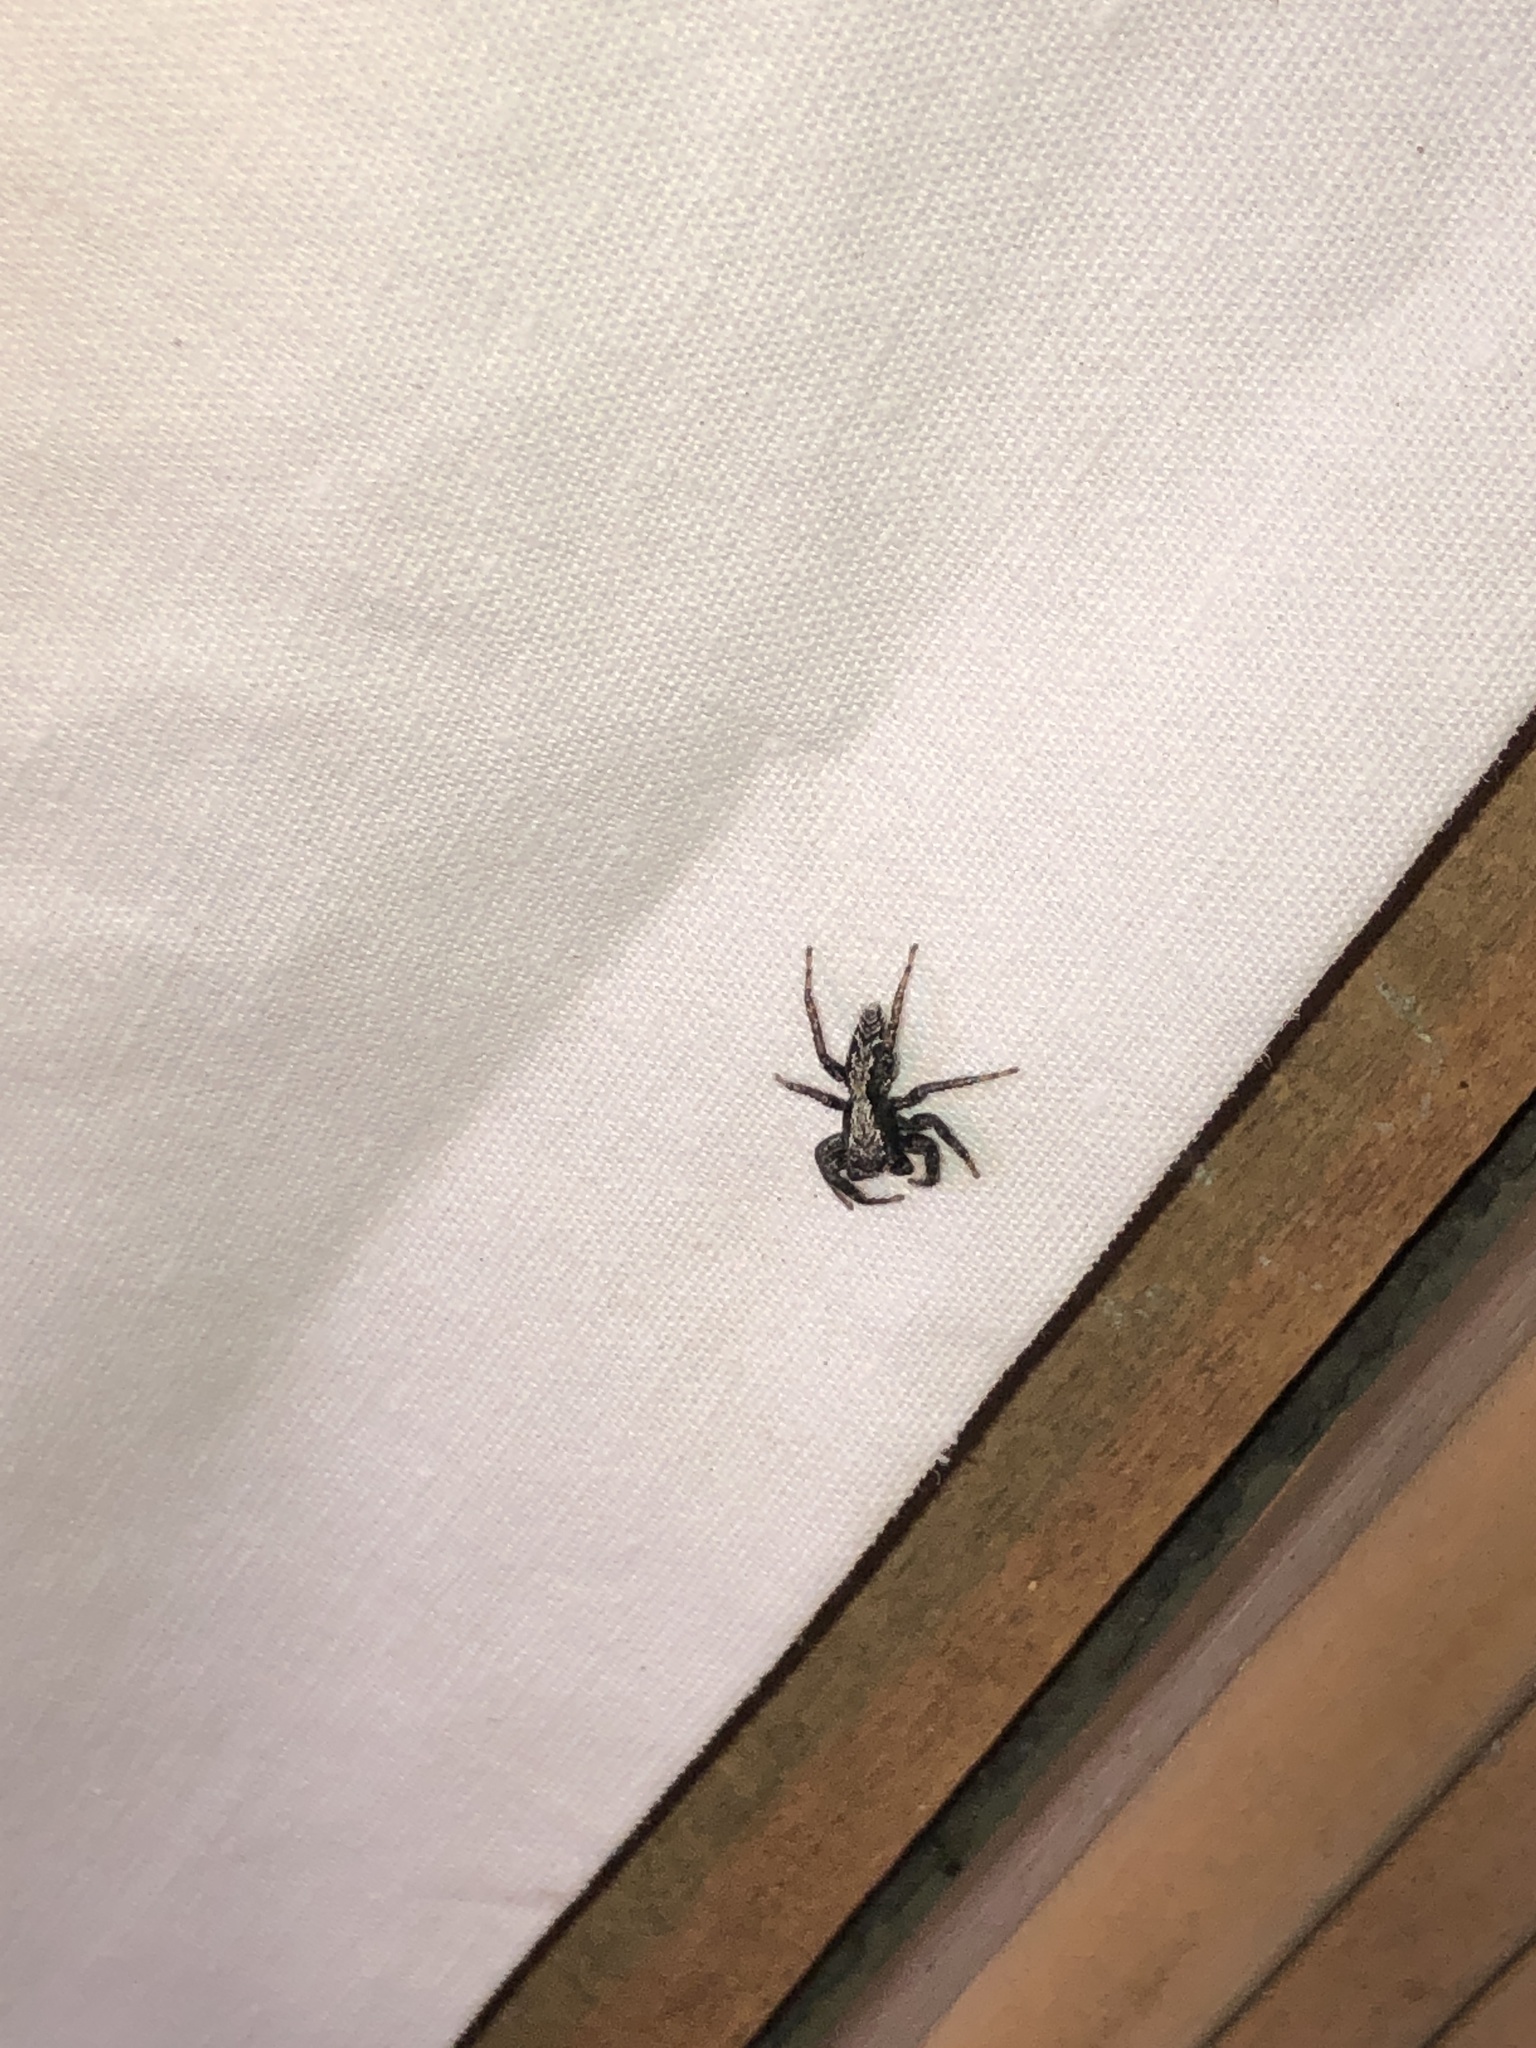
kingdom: Animalia
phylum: Arthropoda
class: Arachnida
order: Araneae
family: Salticidae
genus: Platycryptus
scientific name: Platycryptus californicus
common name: Jumping spiders
